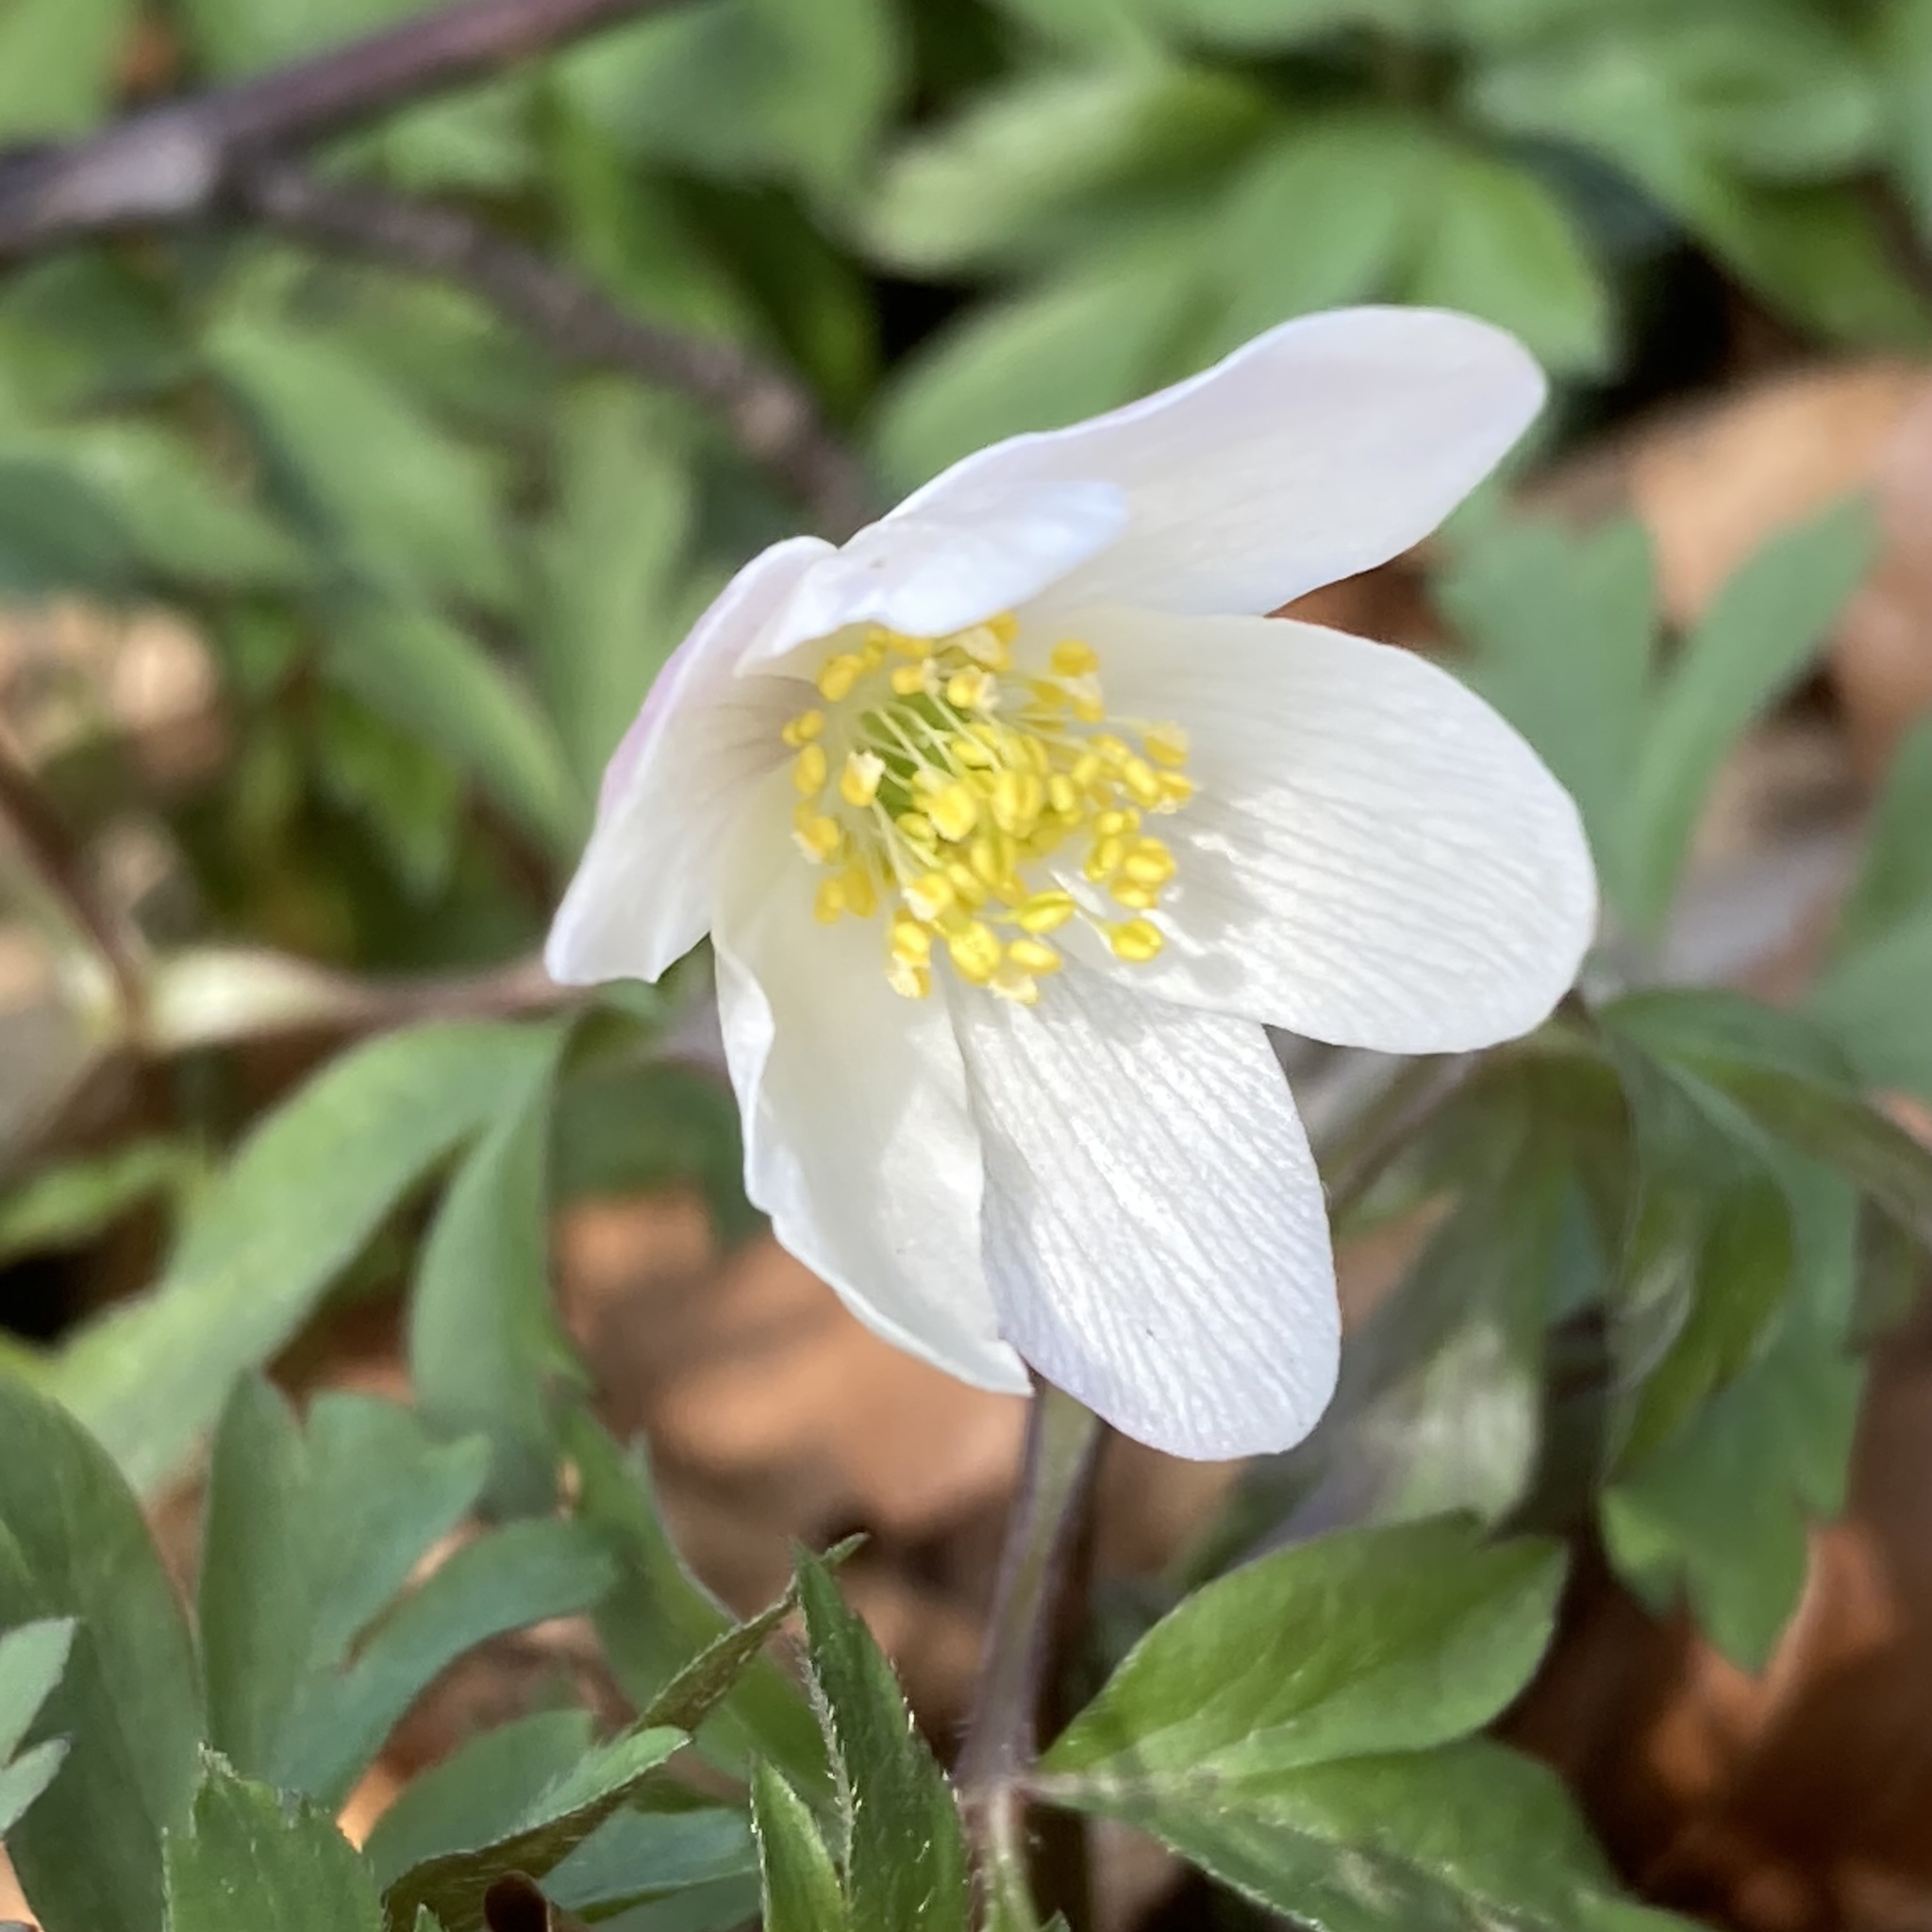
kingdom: Plantae
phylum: Tracheophyta
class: Magnoliopsida
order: Ranunculales
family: Ranunculaceae
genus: Anemone
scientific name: Anemone nemorosa
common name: Wood anemone
